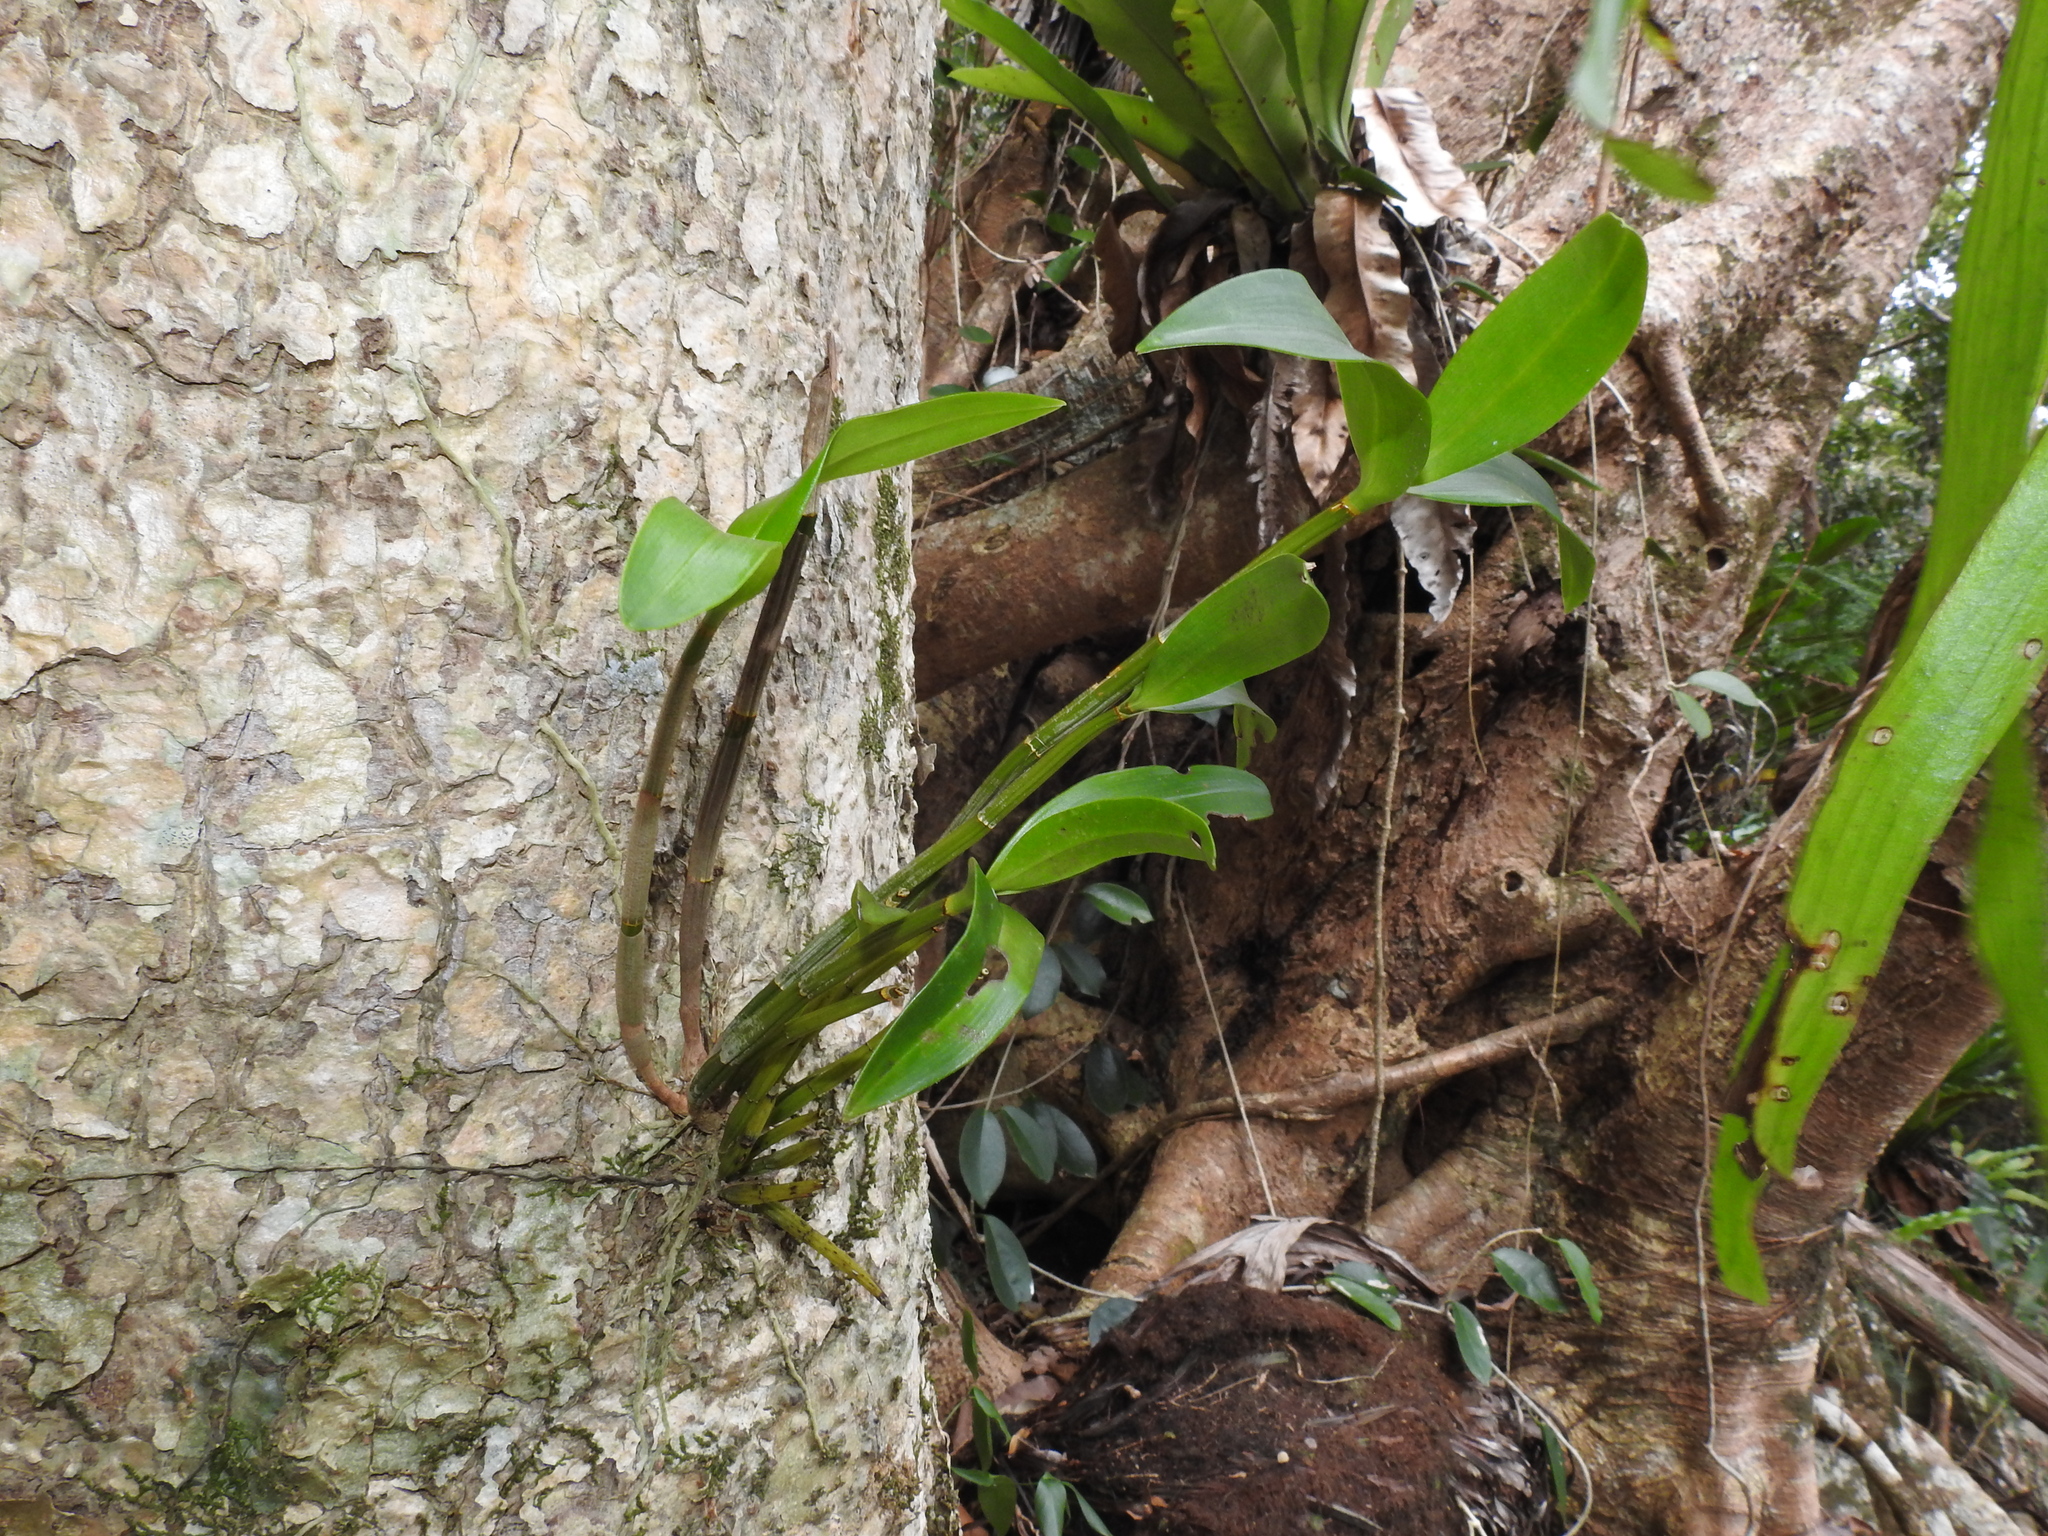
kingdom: Plantae
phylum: Tracheophyta
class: Liliopsida
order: Asparagales
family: Orchidaceae
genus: Dendrobium
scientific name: Dendrobium gracilicaule
